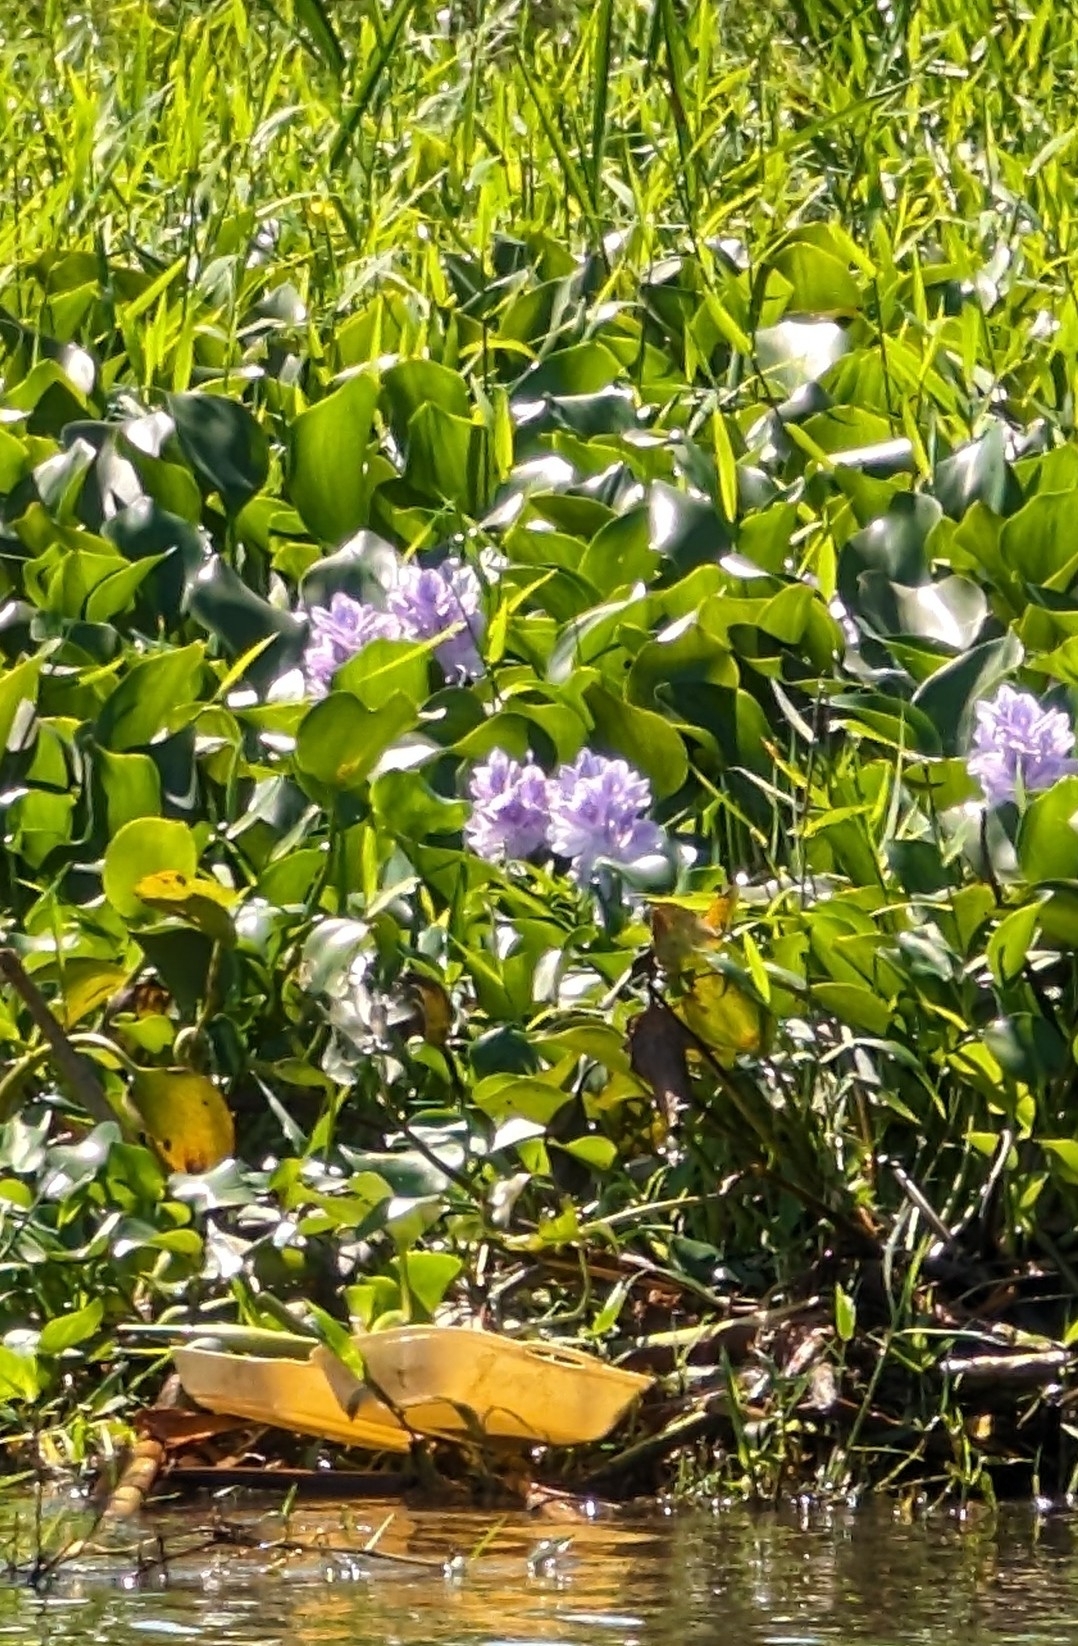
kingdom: Plantae
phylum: Tracheophyta
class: Liliopsida
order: Commelinales
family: Pontederiaceae
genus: Pontederia
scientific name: Pontederia crassipes
